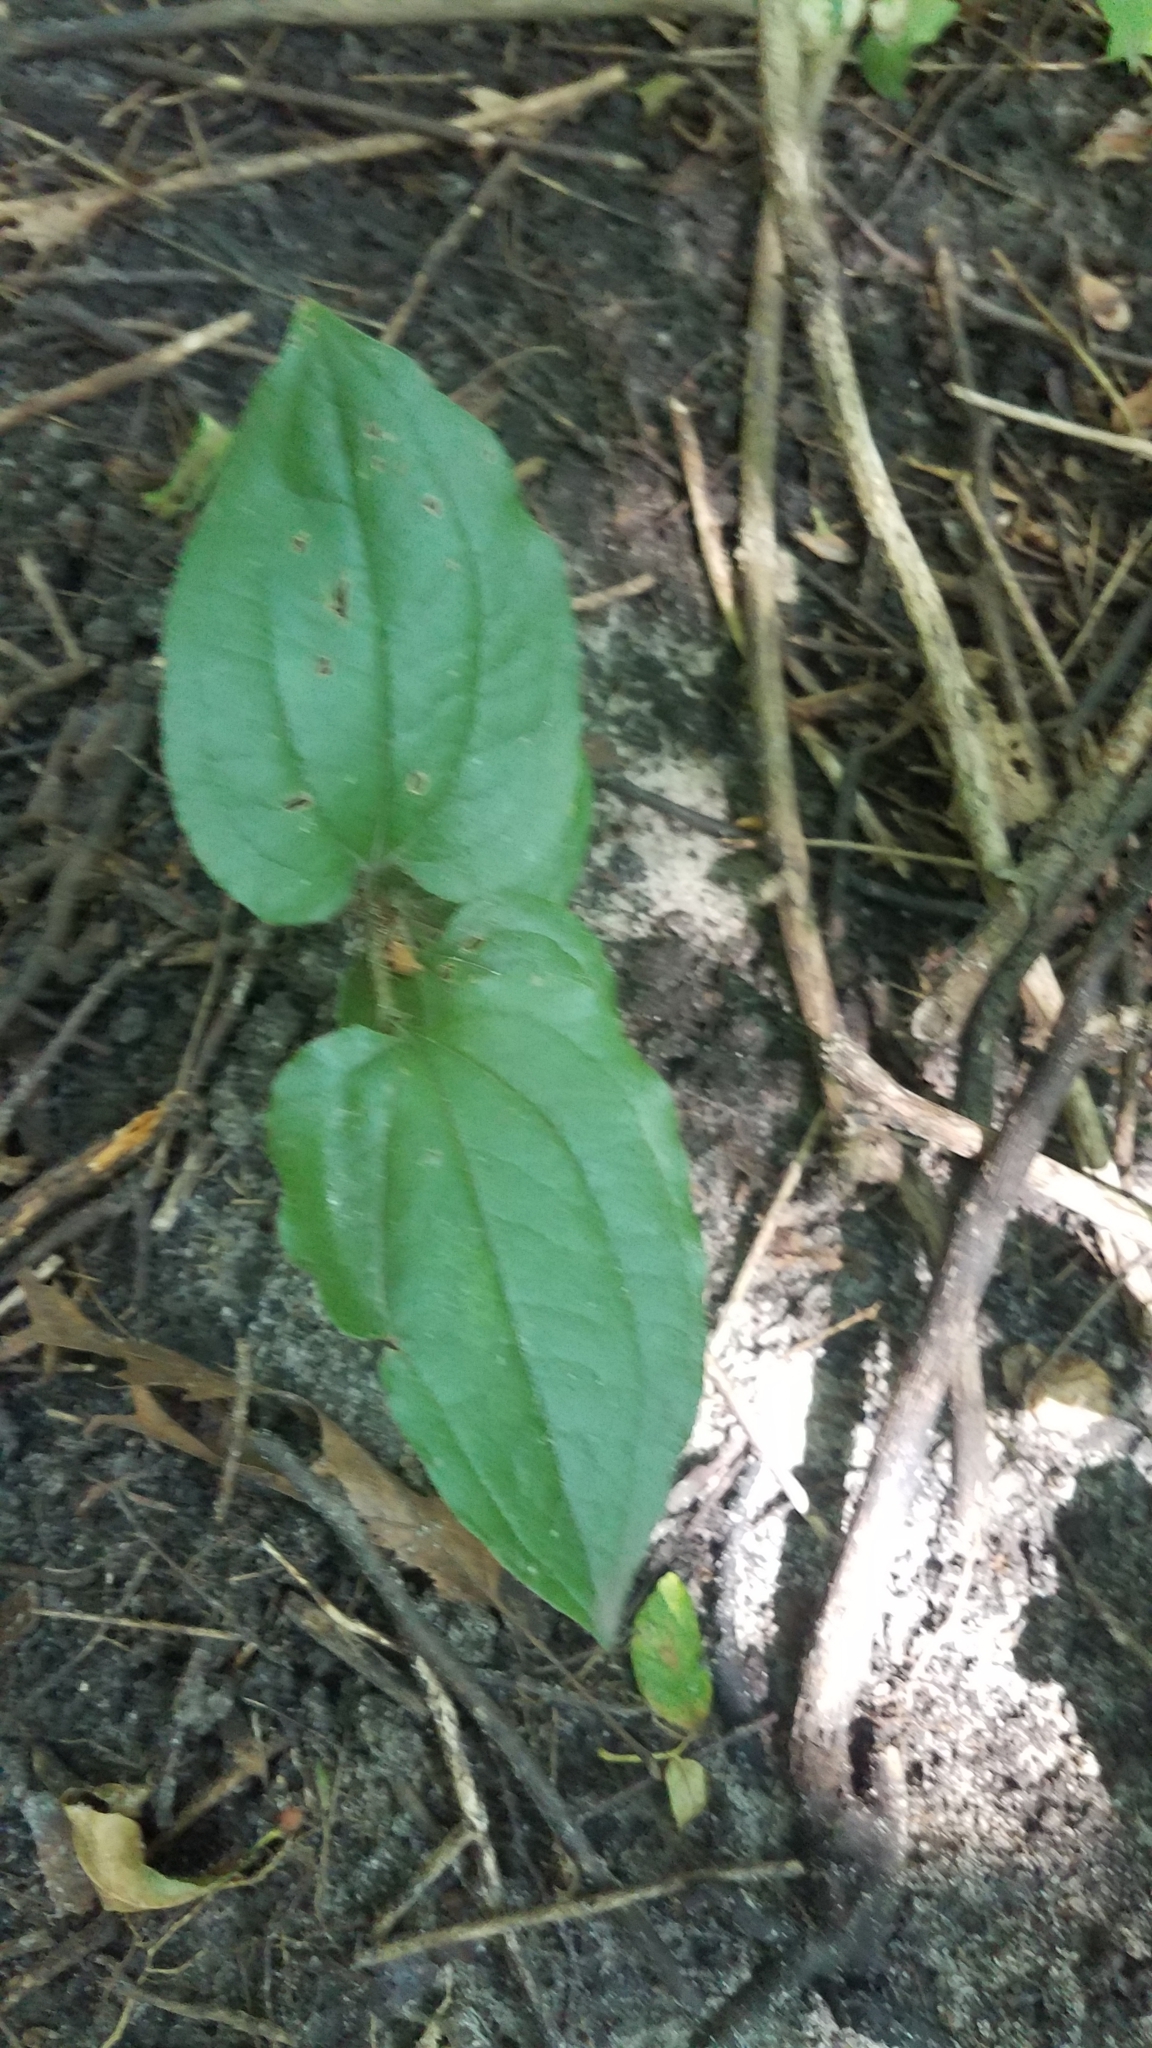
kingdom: Plantae
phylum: Tracheophyta
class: Liliopsida
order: Liliales
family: Smilacaceae
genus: Smilax
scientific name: Smilax tamnoides
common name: Hellfetter
